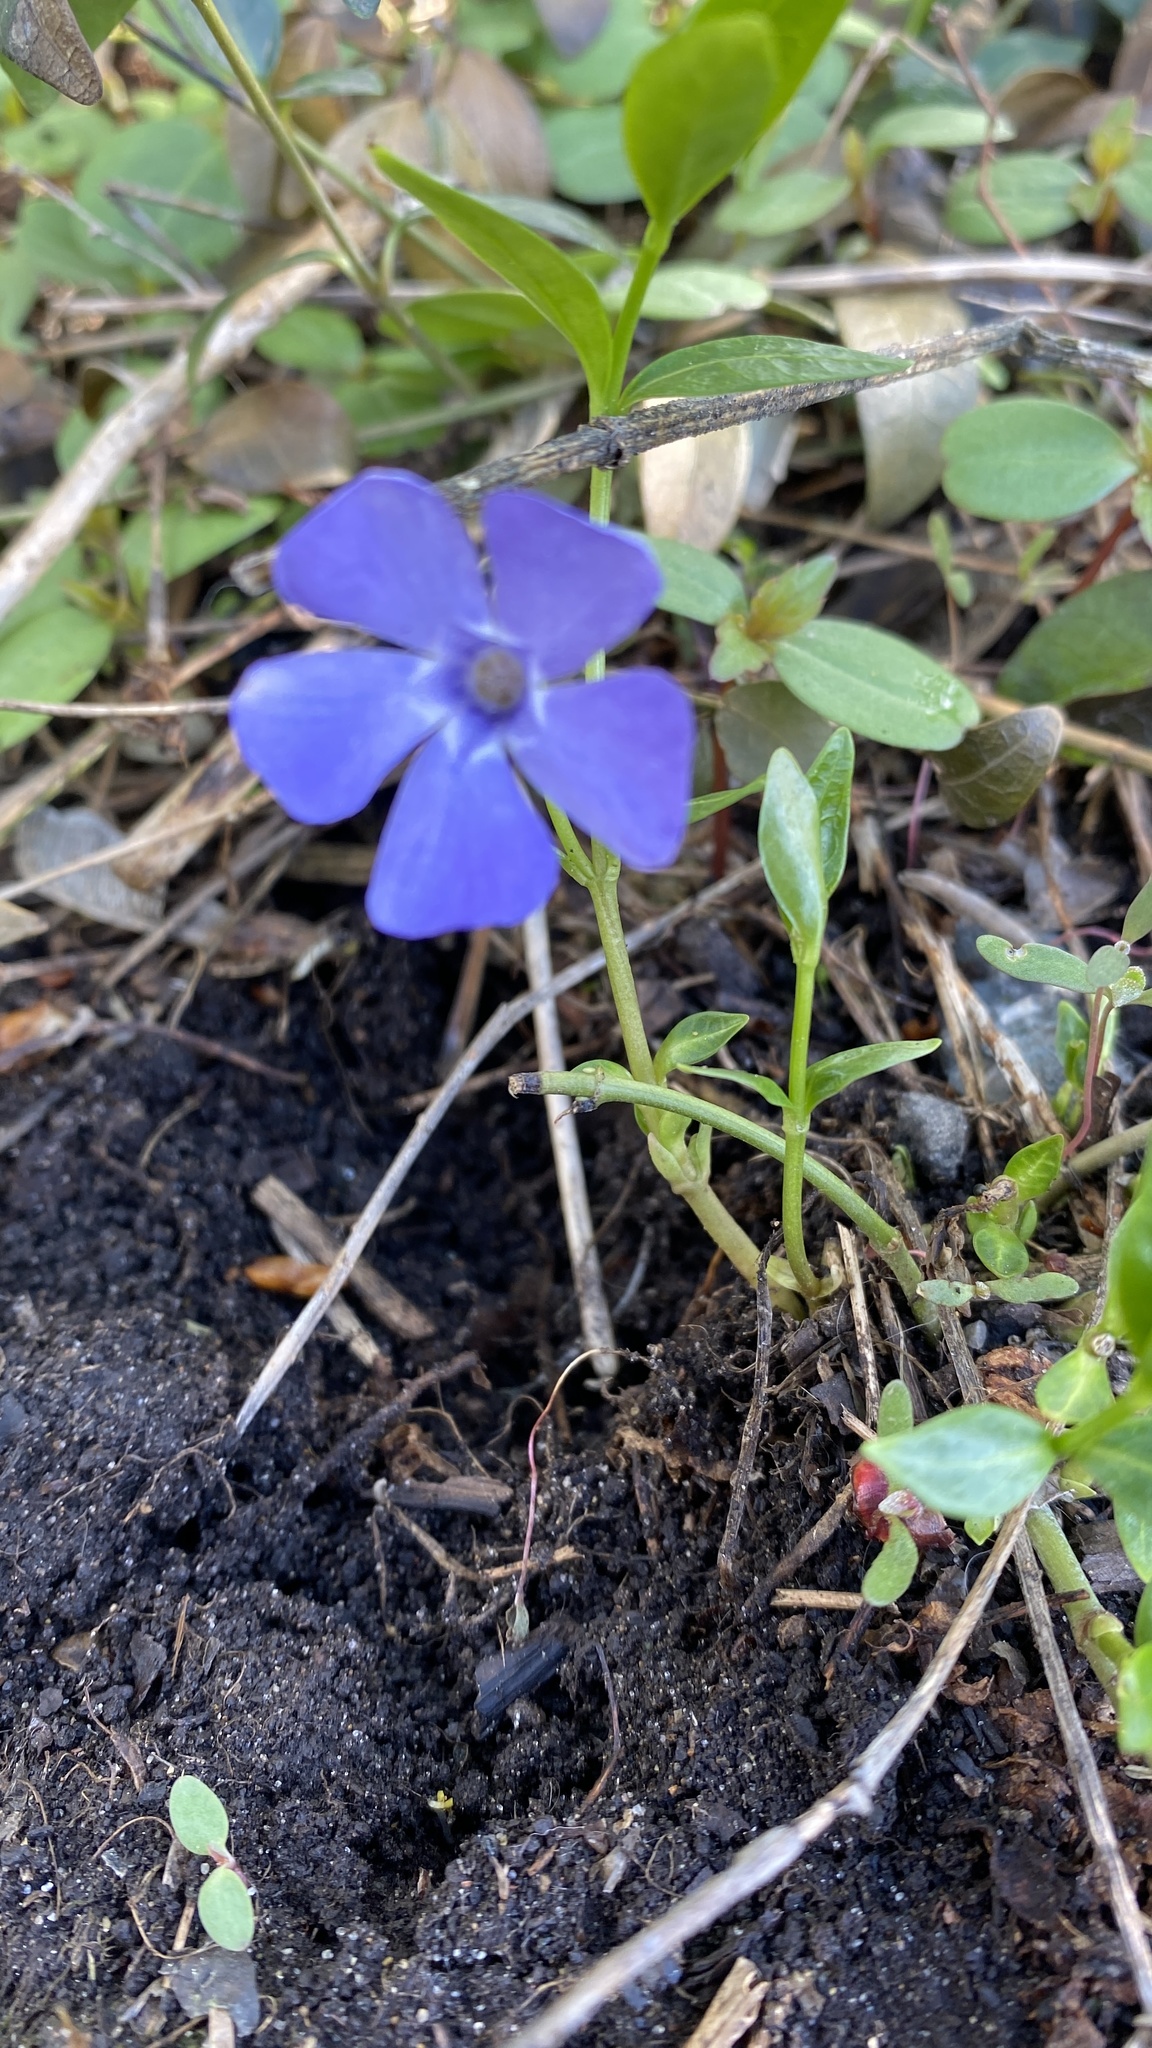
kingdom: Plantae
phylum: Tracheophyta
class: Magnoliopsida
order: Gentianales
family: Apocynaceae
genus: Vinca
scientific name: Vinca minor
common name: Lesser periwinkle
